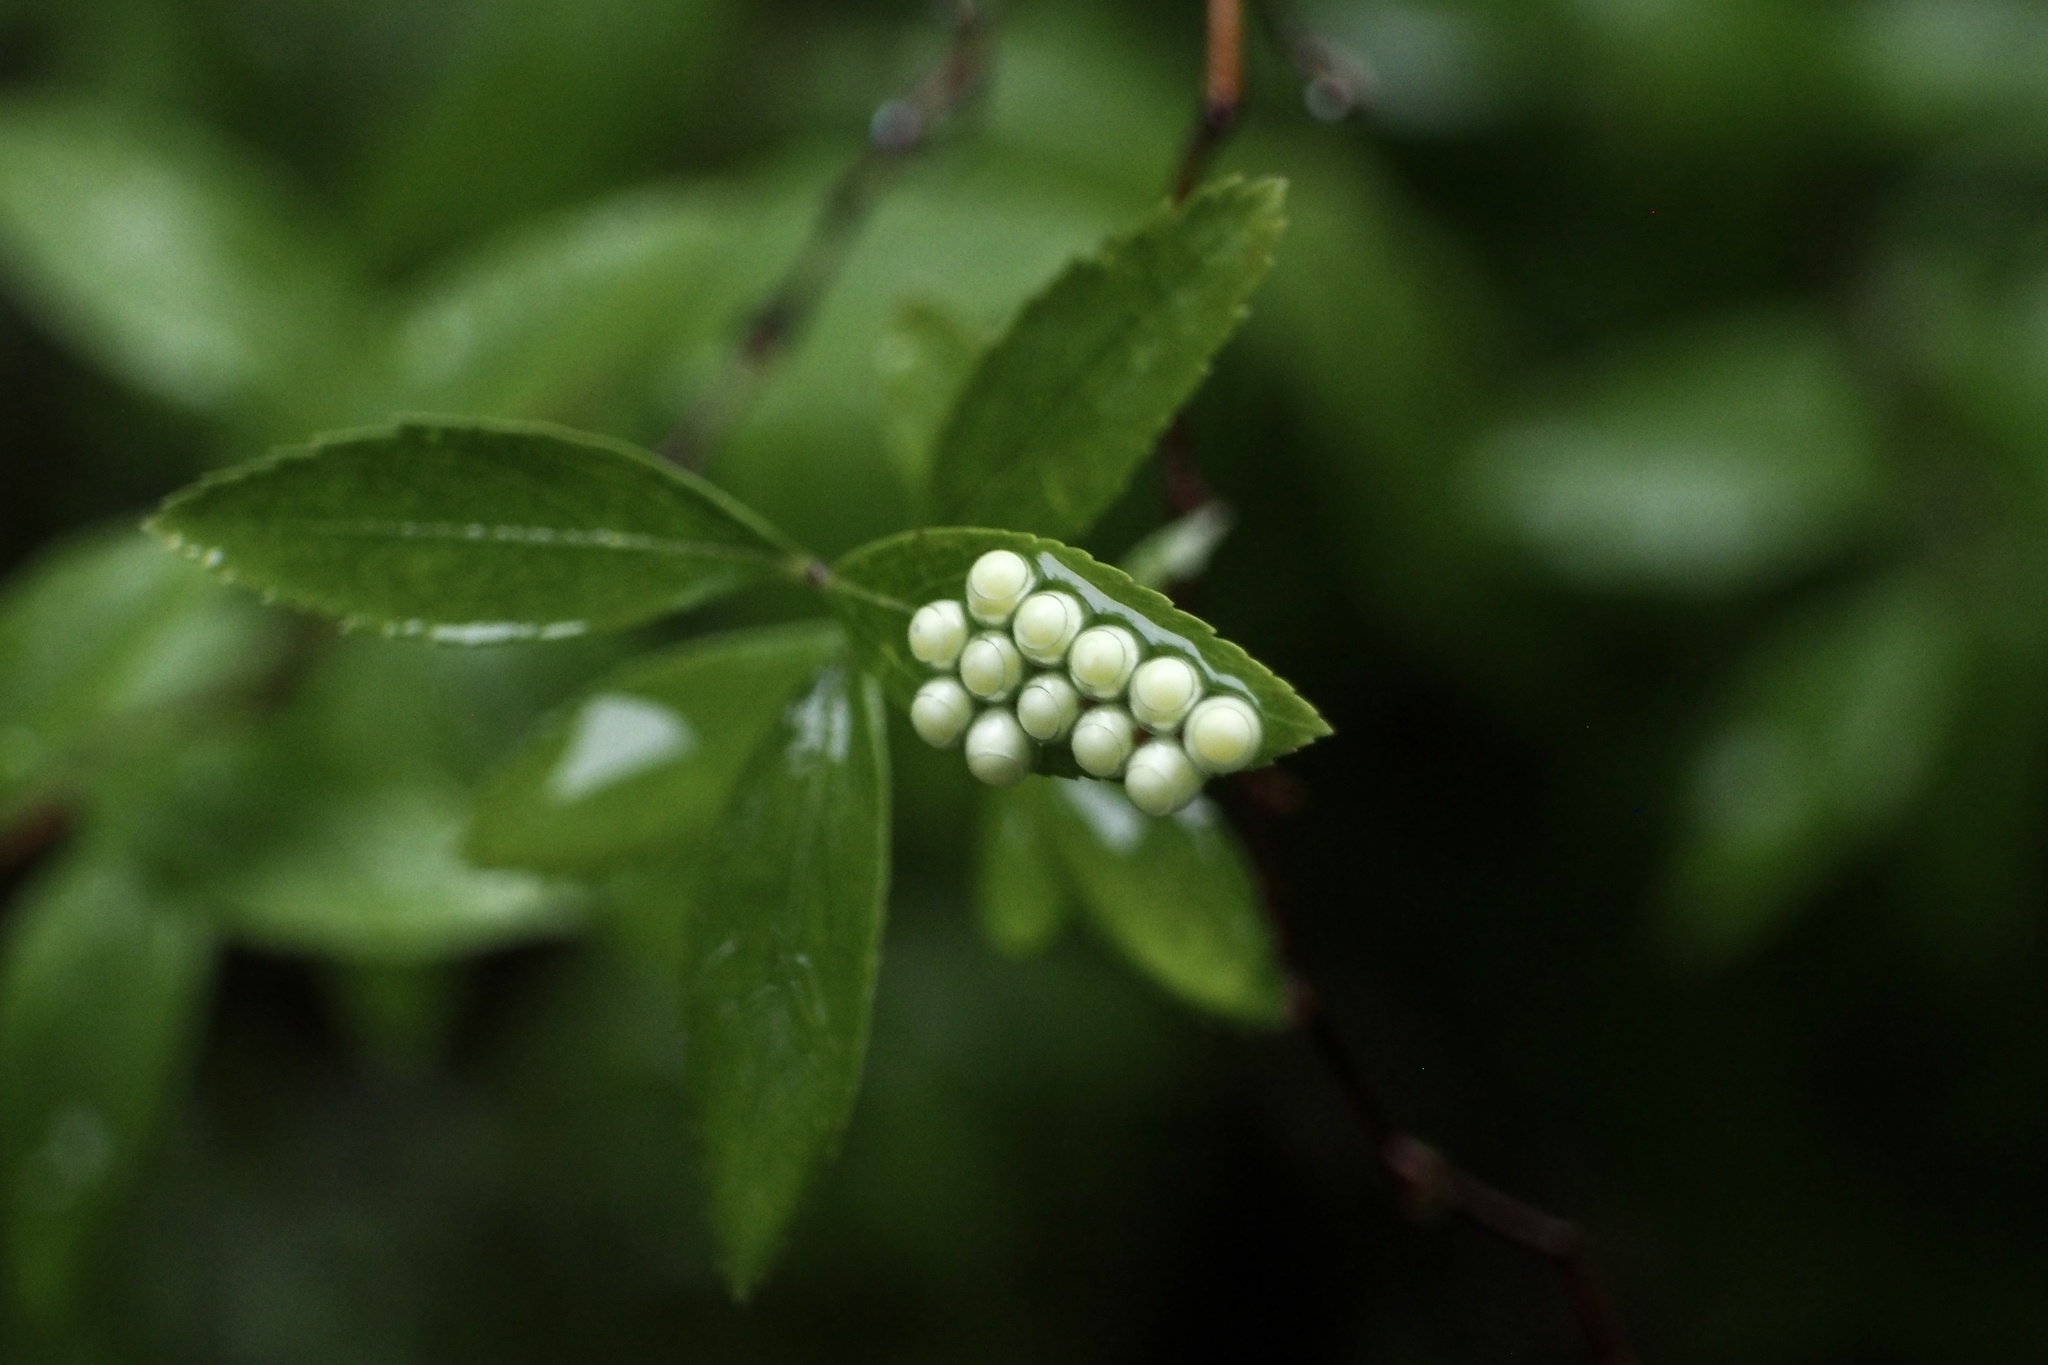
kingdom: Animalia
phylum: Arthropoda
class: Insecta
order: Hemiptera
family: Pentatomidae
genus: Erthesina
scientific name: Erthesina fullo
